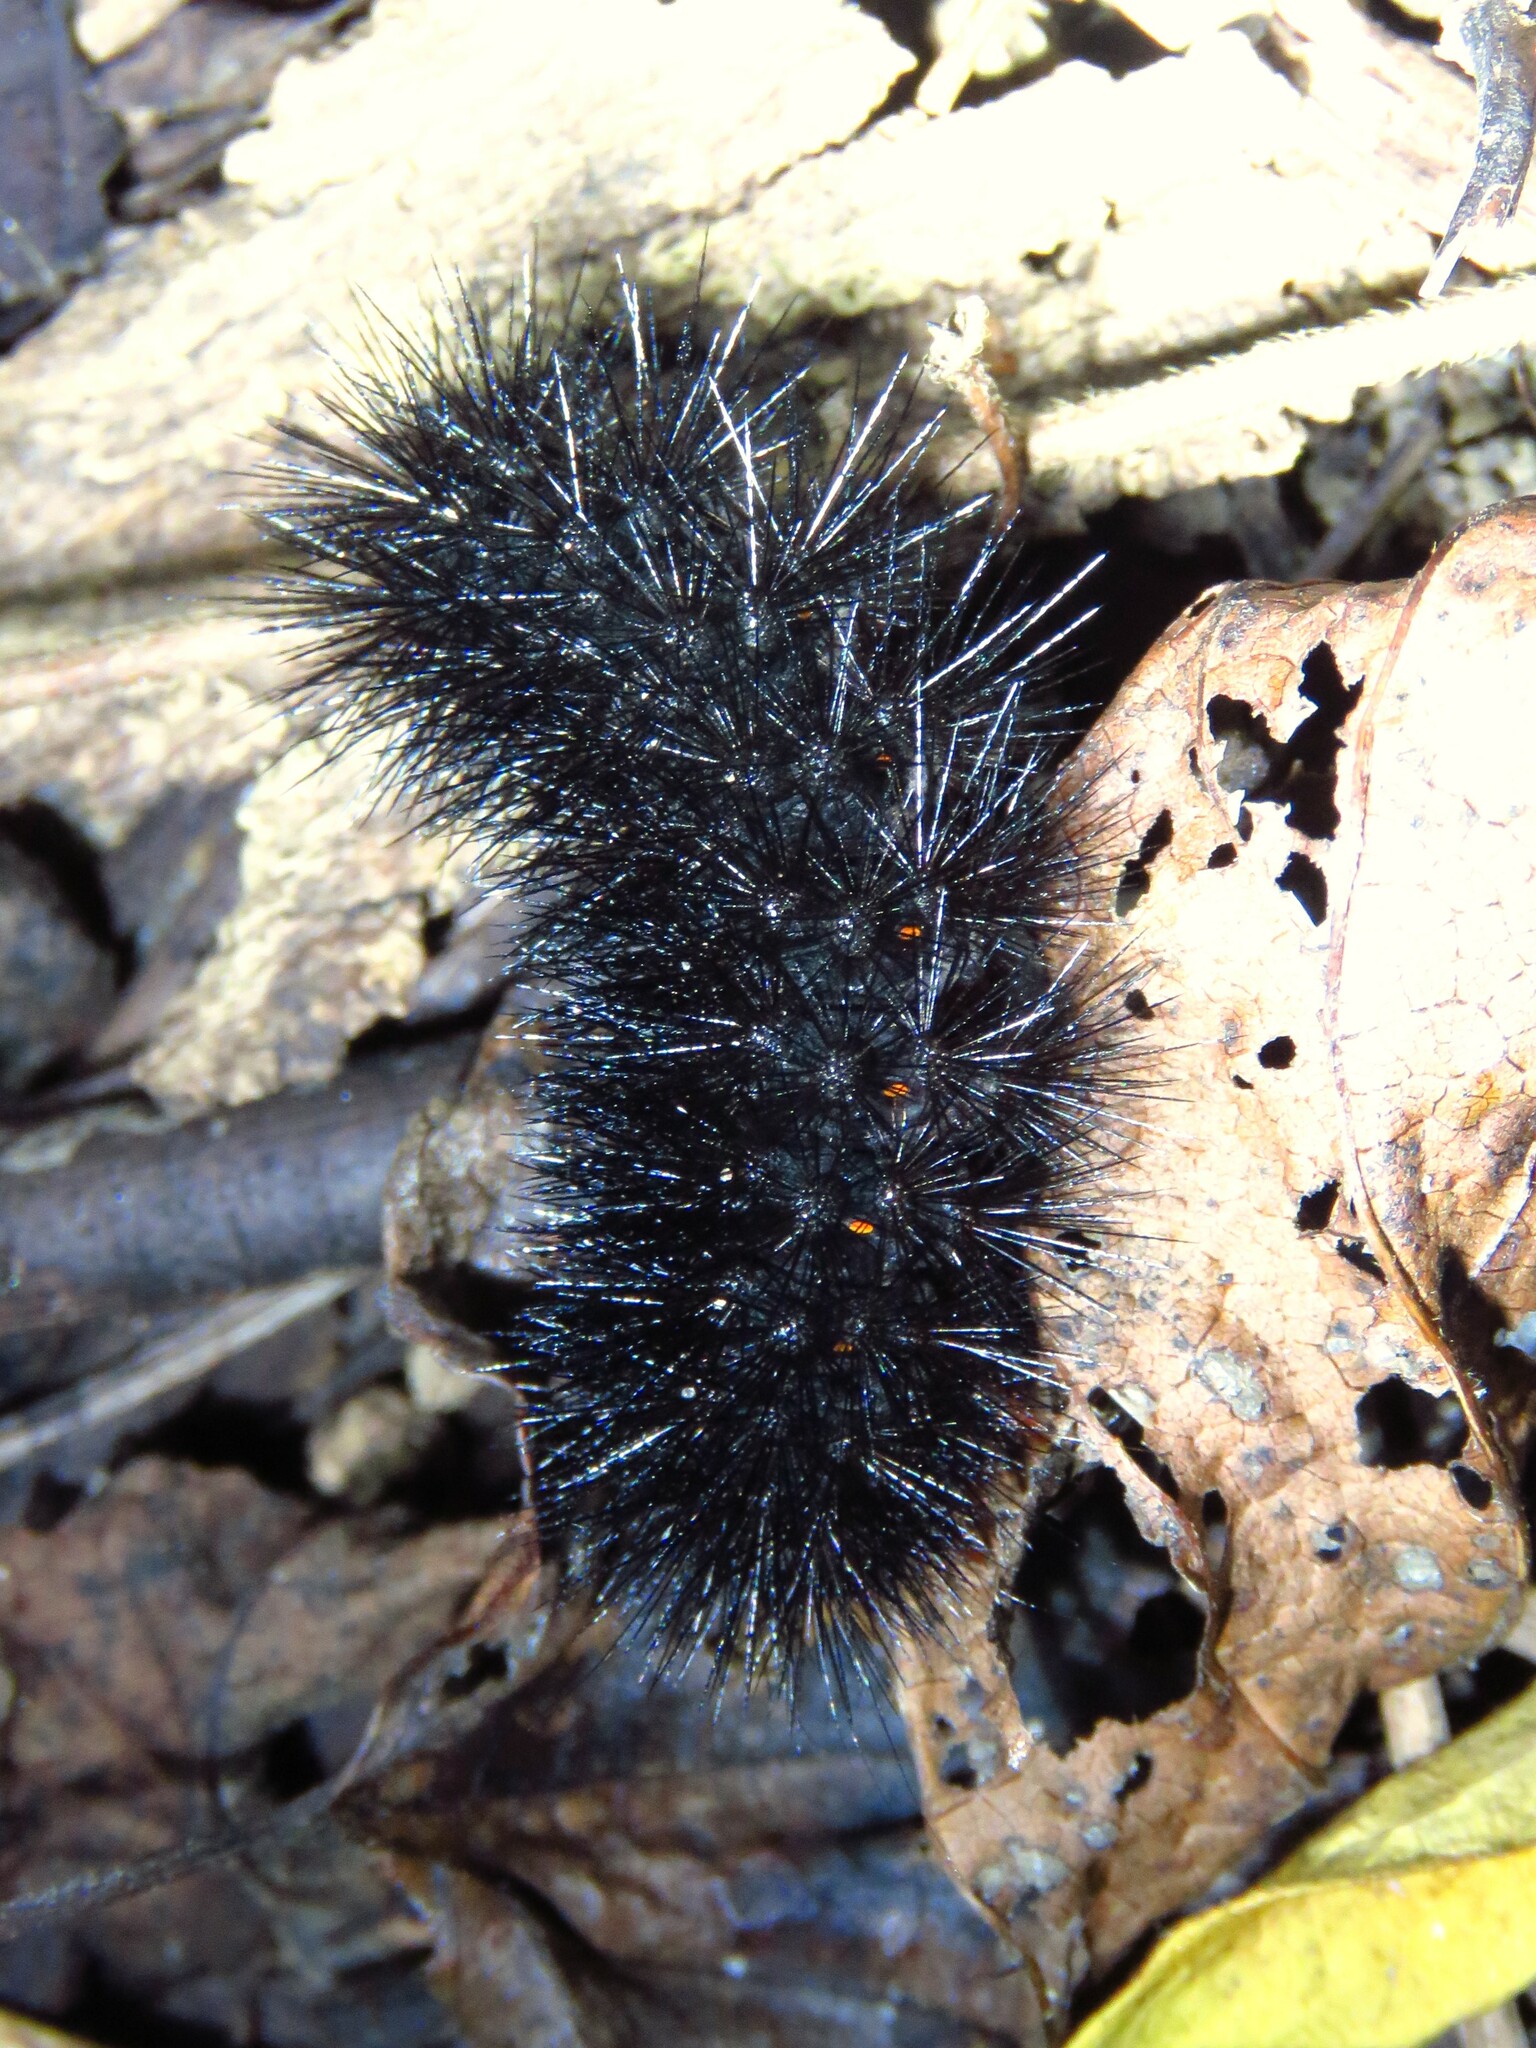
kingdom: Animalia
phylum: Arthropoda
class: Insecta
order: Lepidoptera
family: Erebidae
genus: Hypercompe
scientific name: Hypercompe scribonia
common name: Giant leopard moth
